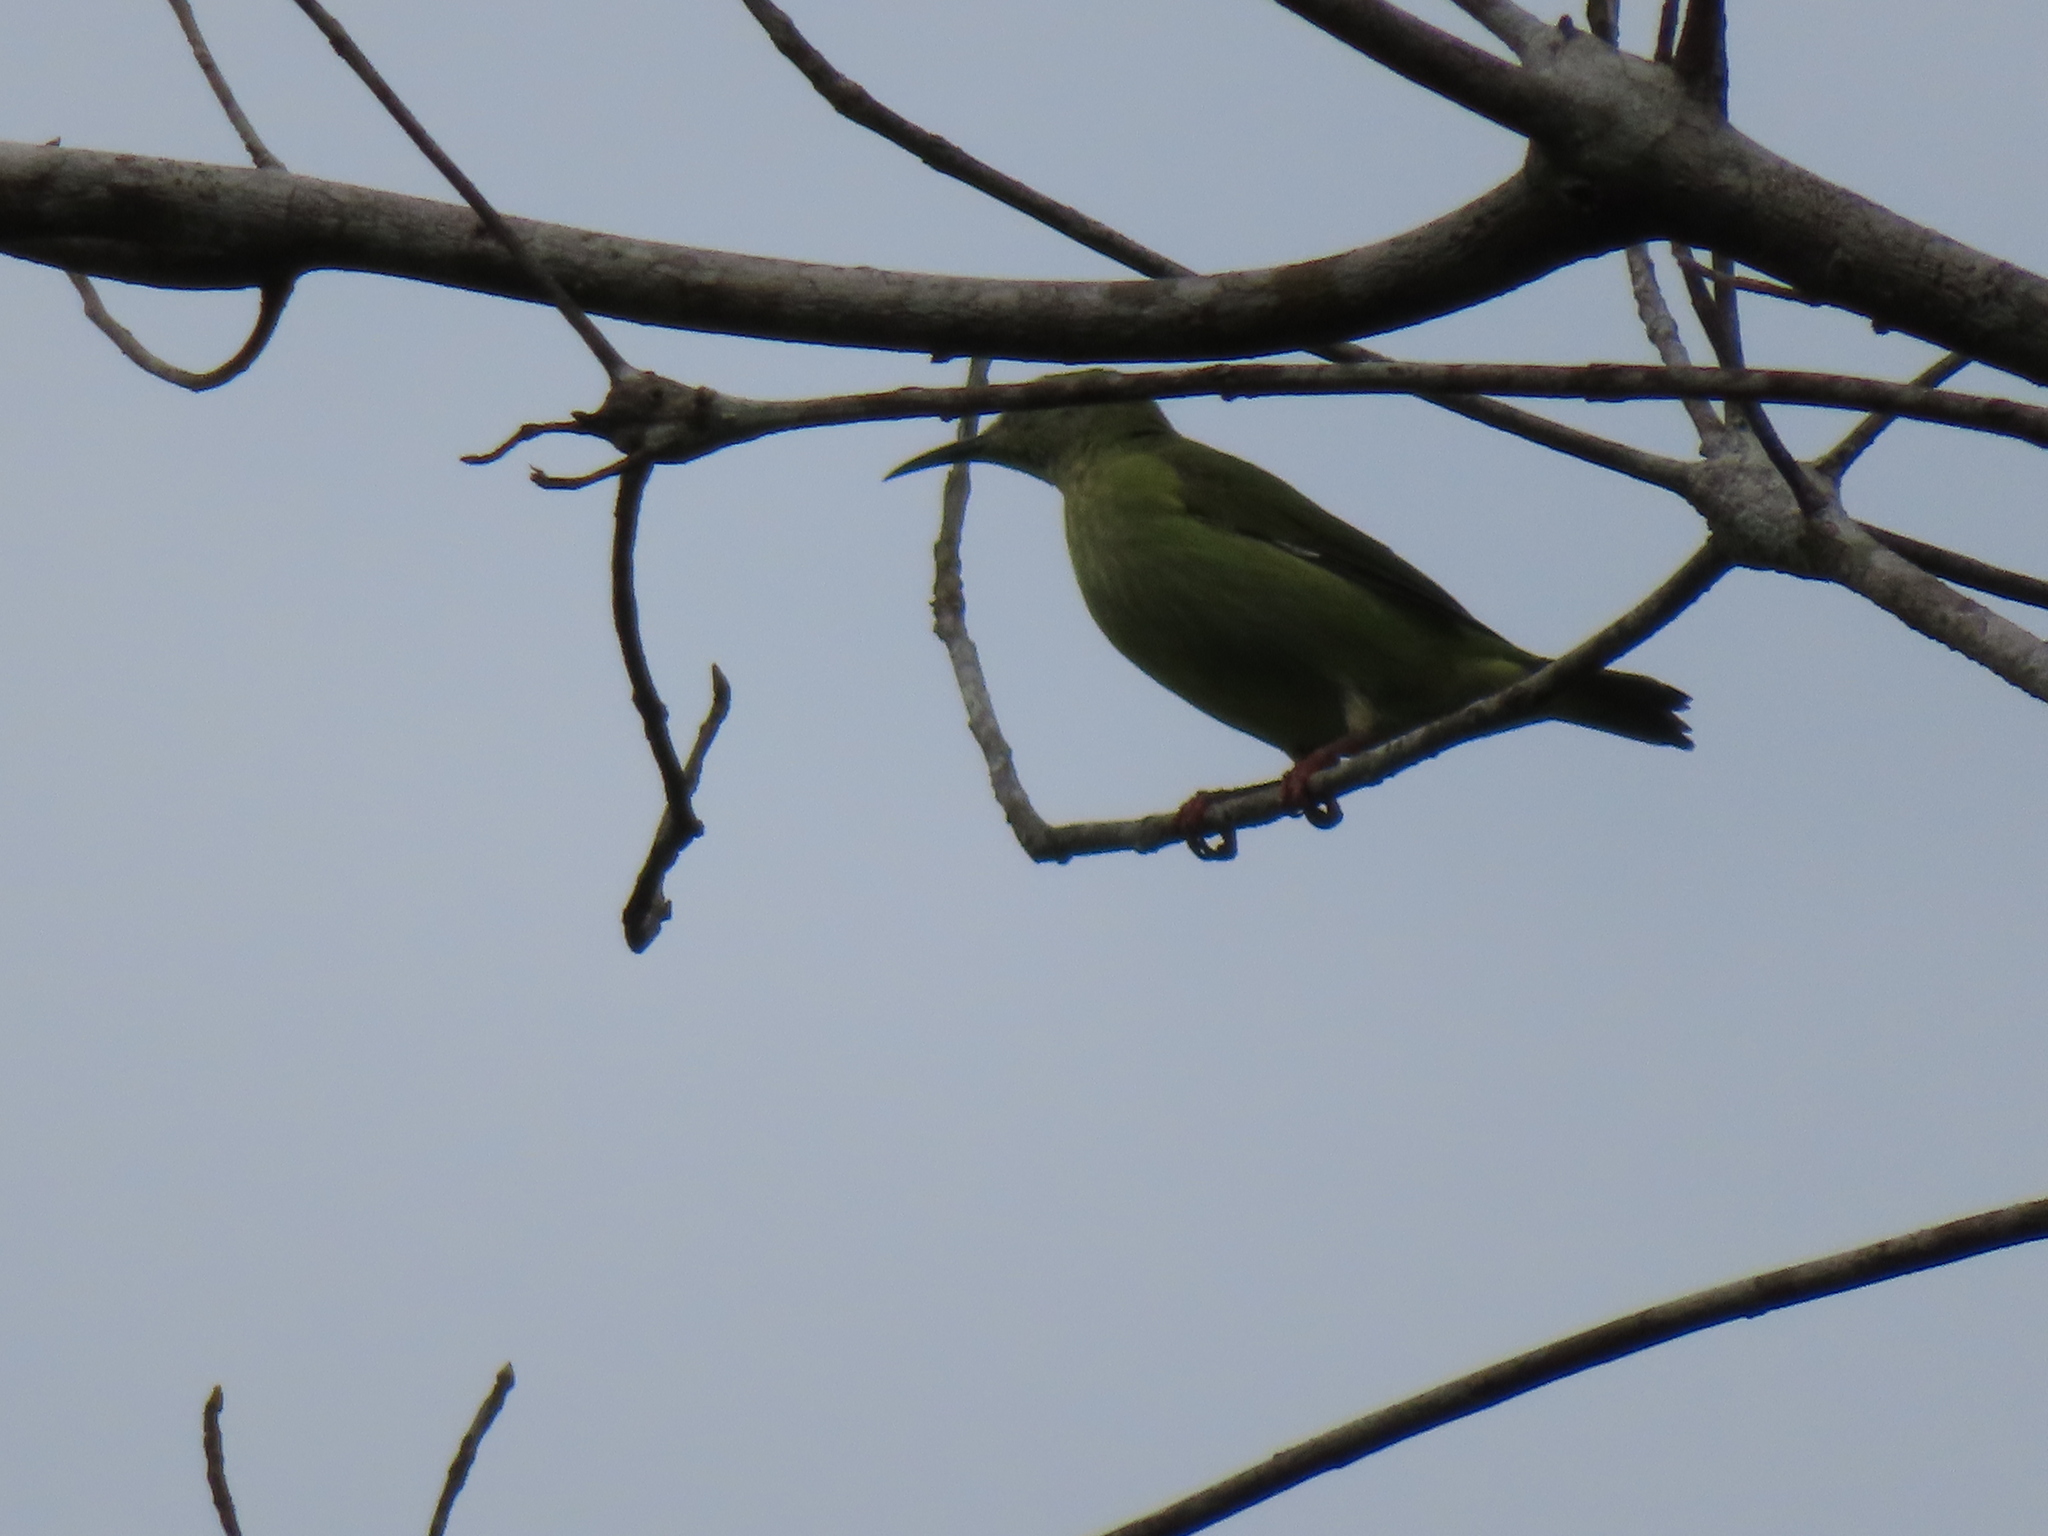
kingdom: Animalia
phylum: Chordata
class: Aves
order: Passeriformes
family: Thraupidae
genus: Cyanerpes
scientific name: Cyanerpes cyaneus
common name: Red-legged honeycreeper
